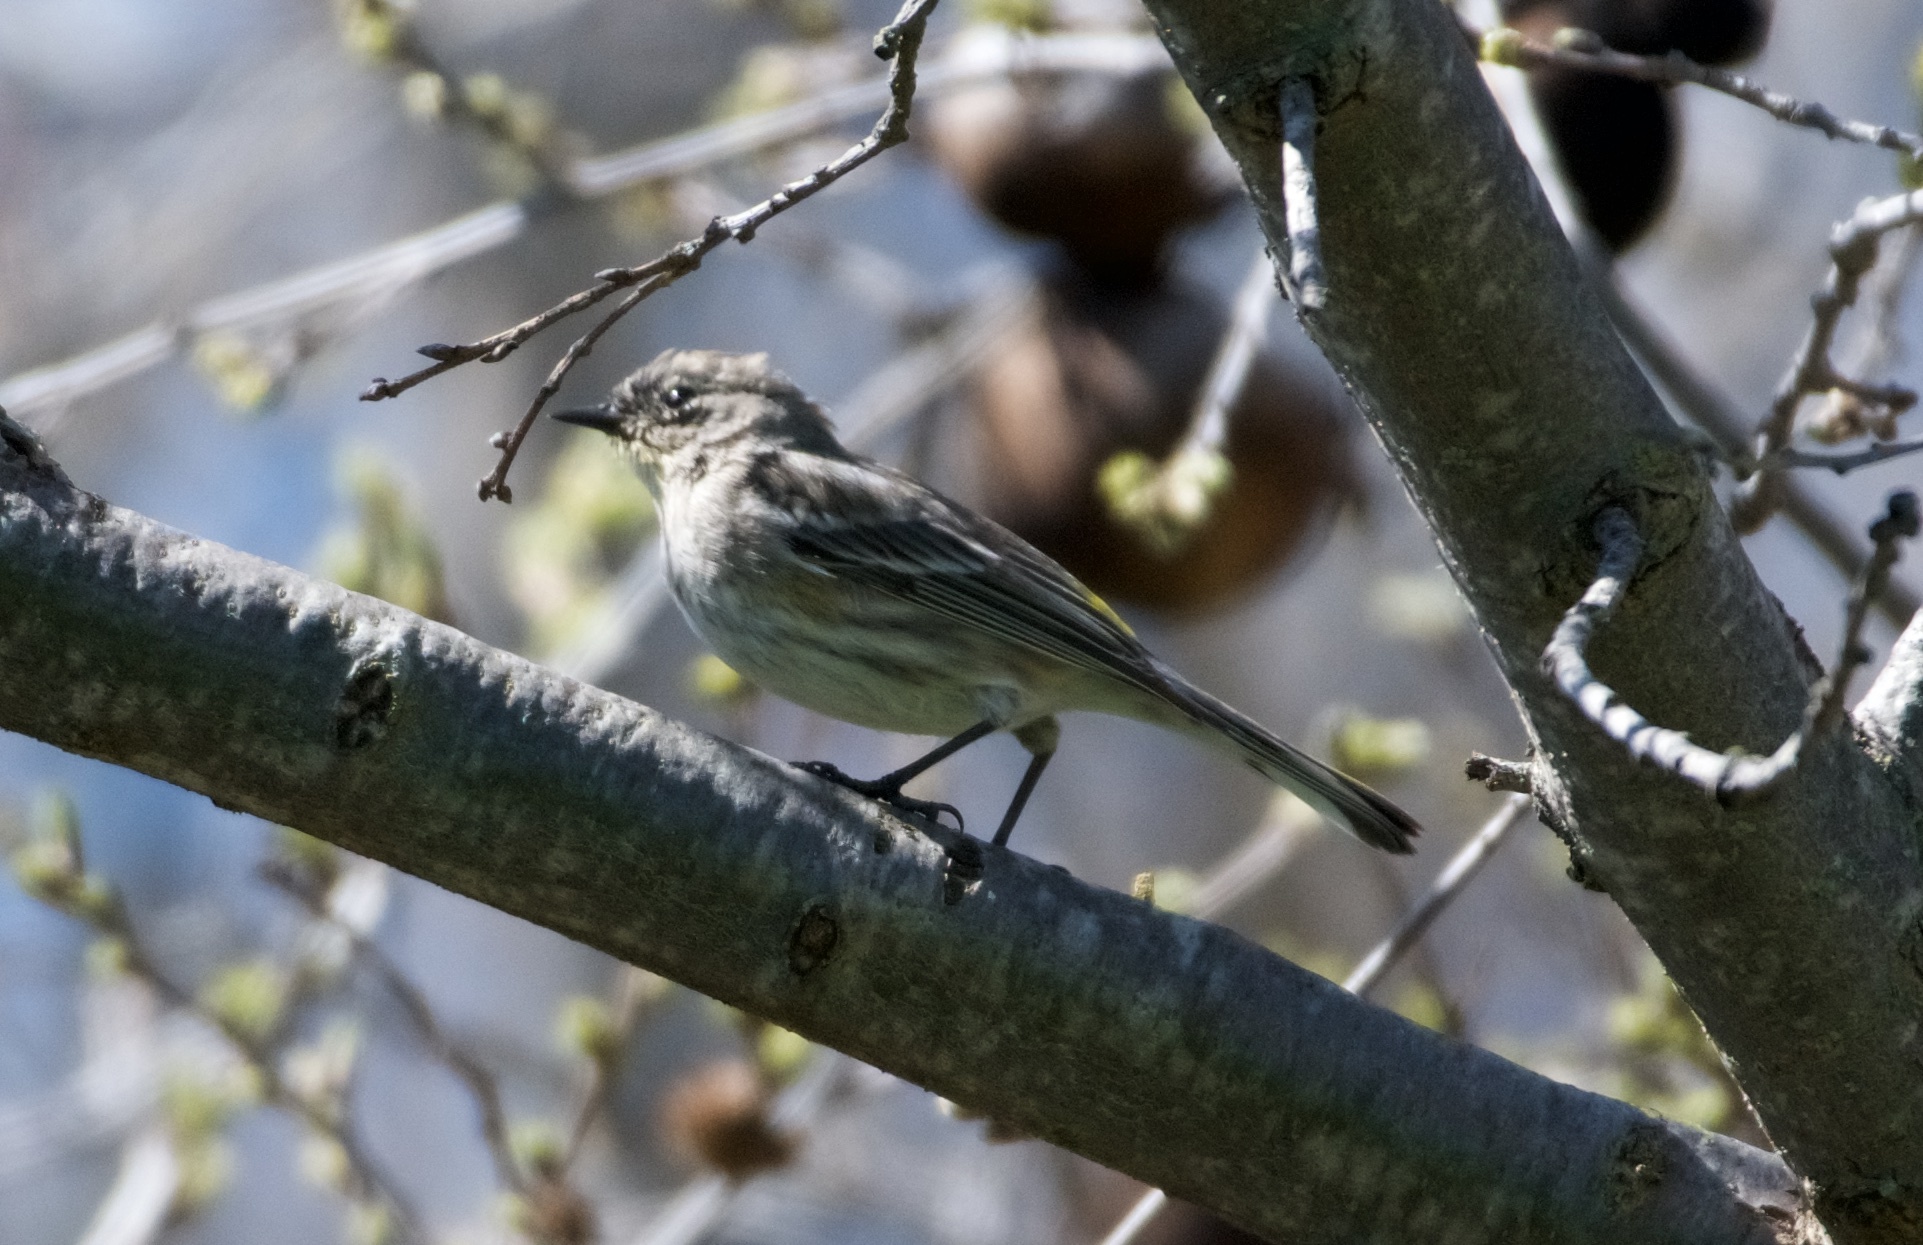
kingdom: Animalia
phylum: Chordata
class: Aves
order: Passeriformes
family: Parulidae
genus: Setophaga
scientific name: Setophaga coronata
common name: Myrtle warbler
